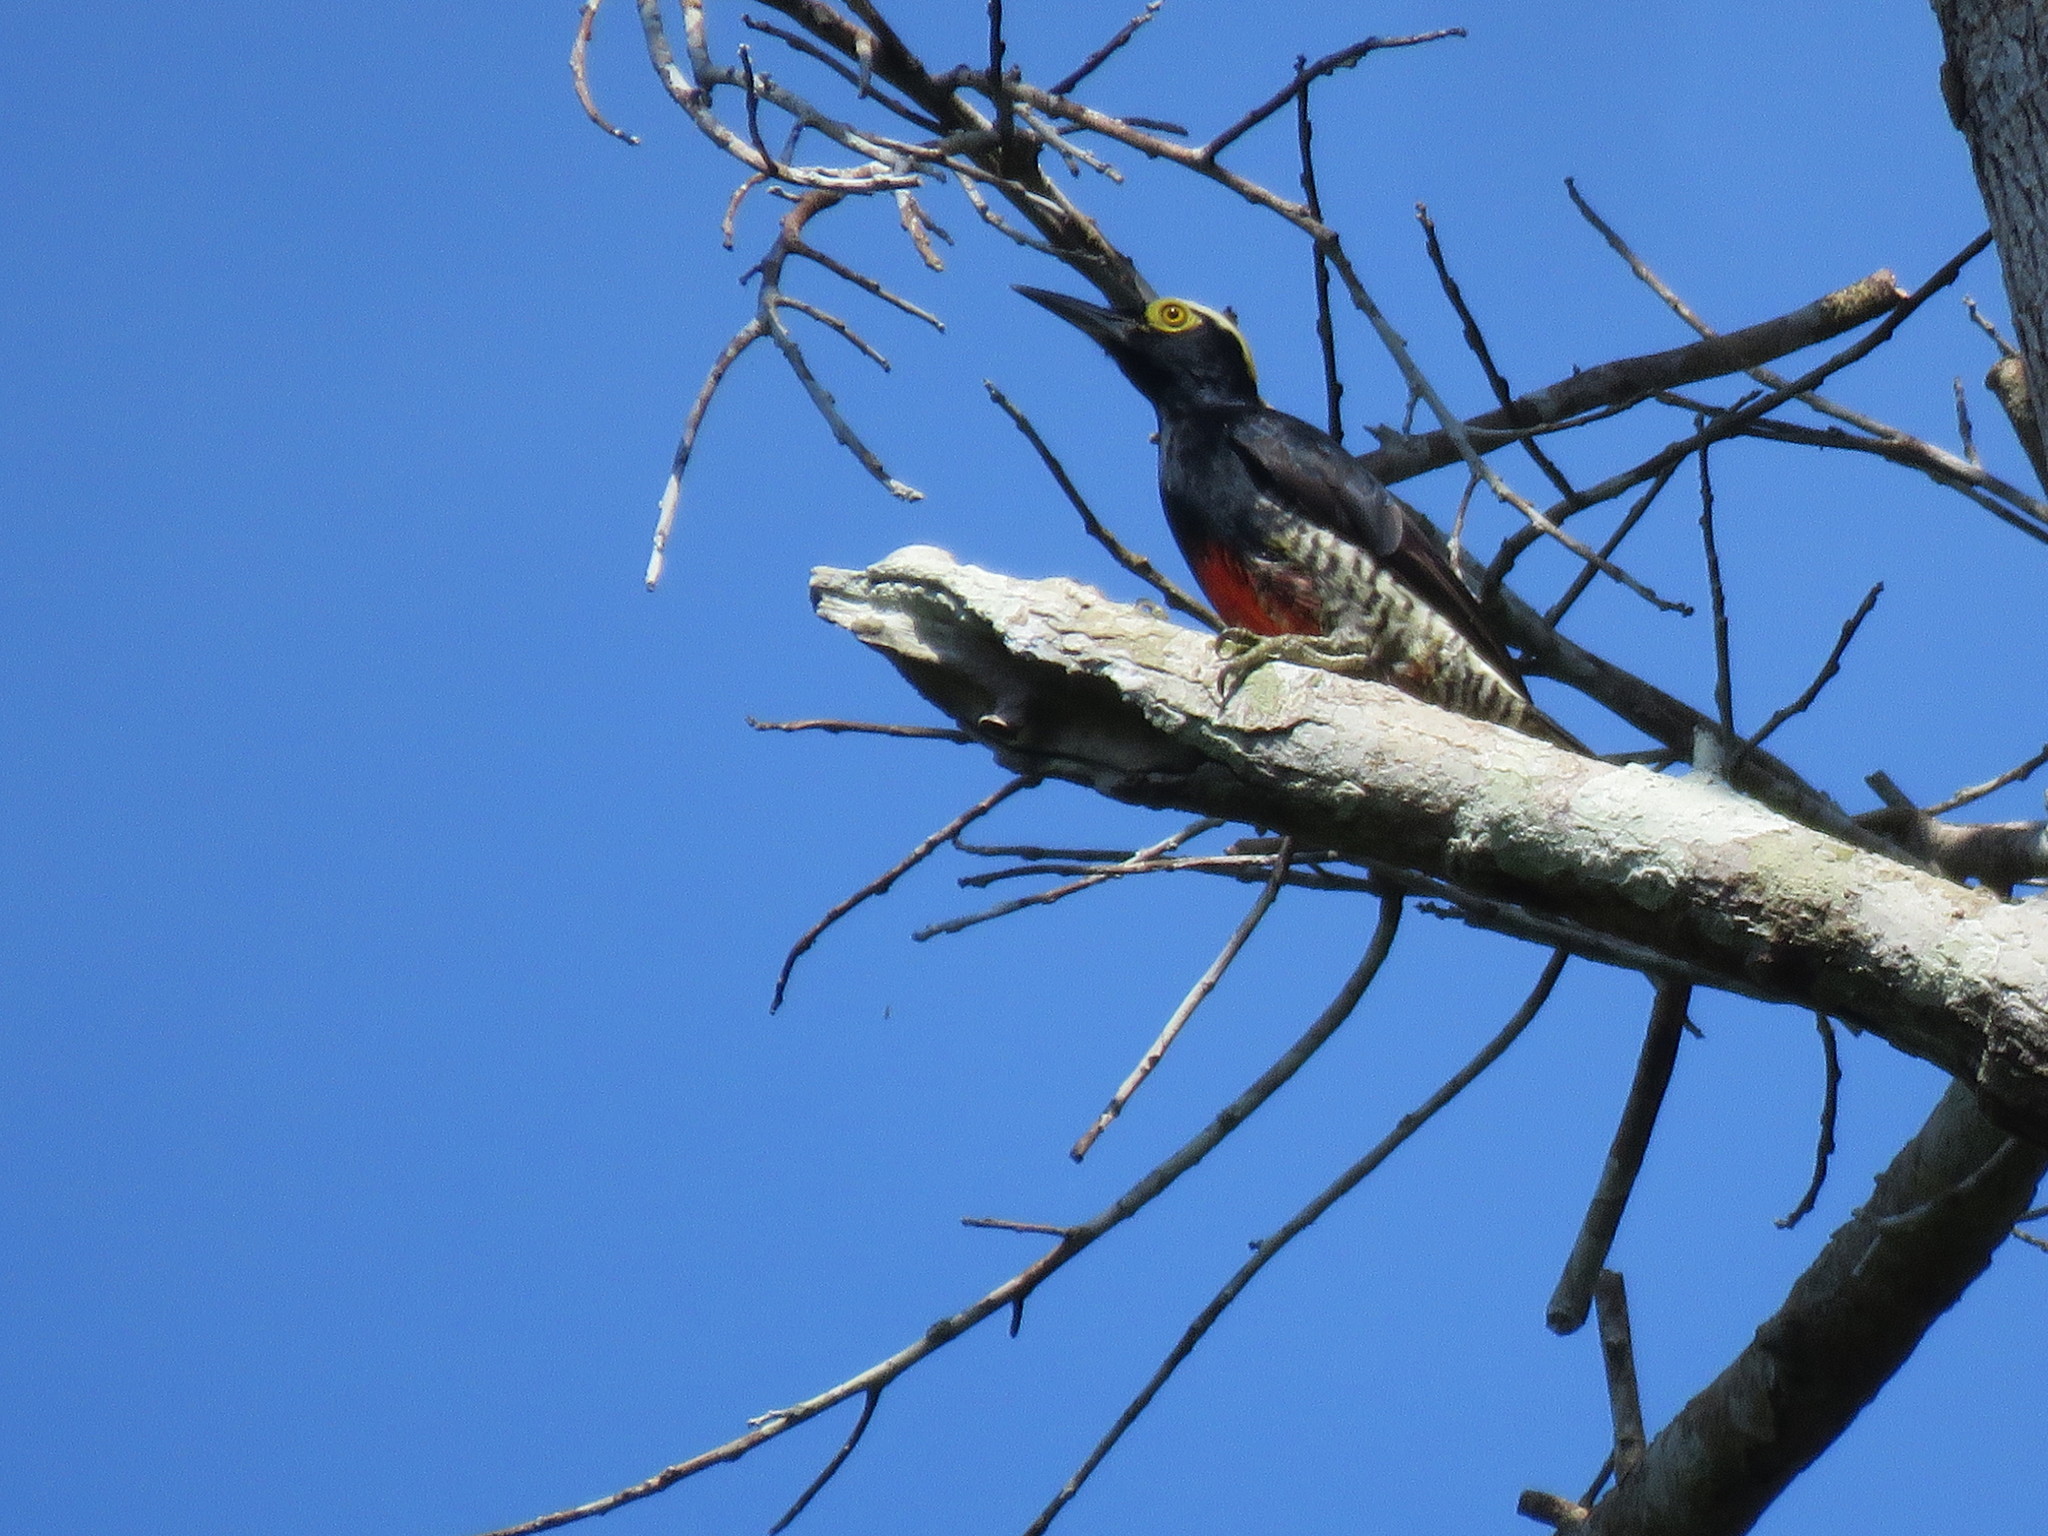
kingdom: Animalia
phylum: Chordata
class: Aves
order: Piciformes
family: Picidae
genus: Melanerpes
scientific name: Melanerpes cruentatus
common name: Yellow-tufted woodpecker
